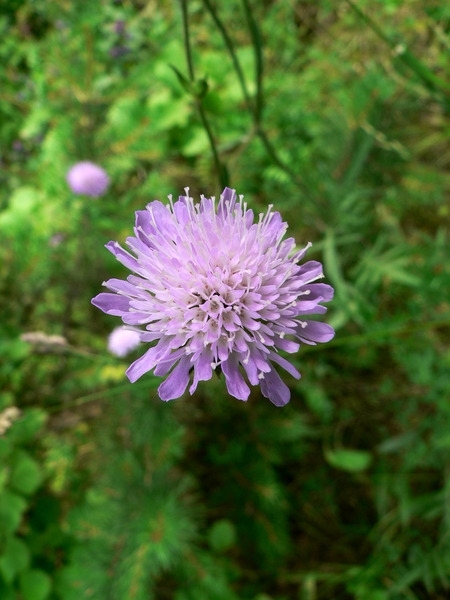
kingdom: Plantae
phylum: Tracheophyta
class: Magnoliopsida
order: Dipsacales
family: Caprifoliaceae
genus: Knautia
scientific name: Knautia arvensis
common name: Field scabiosa
